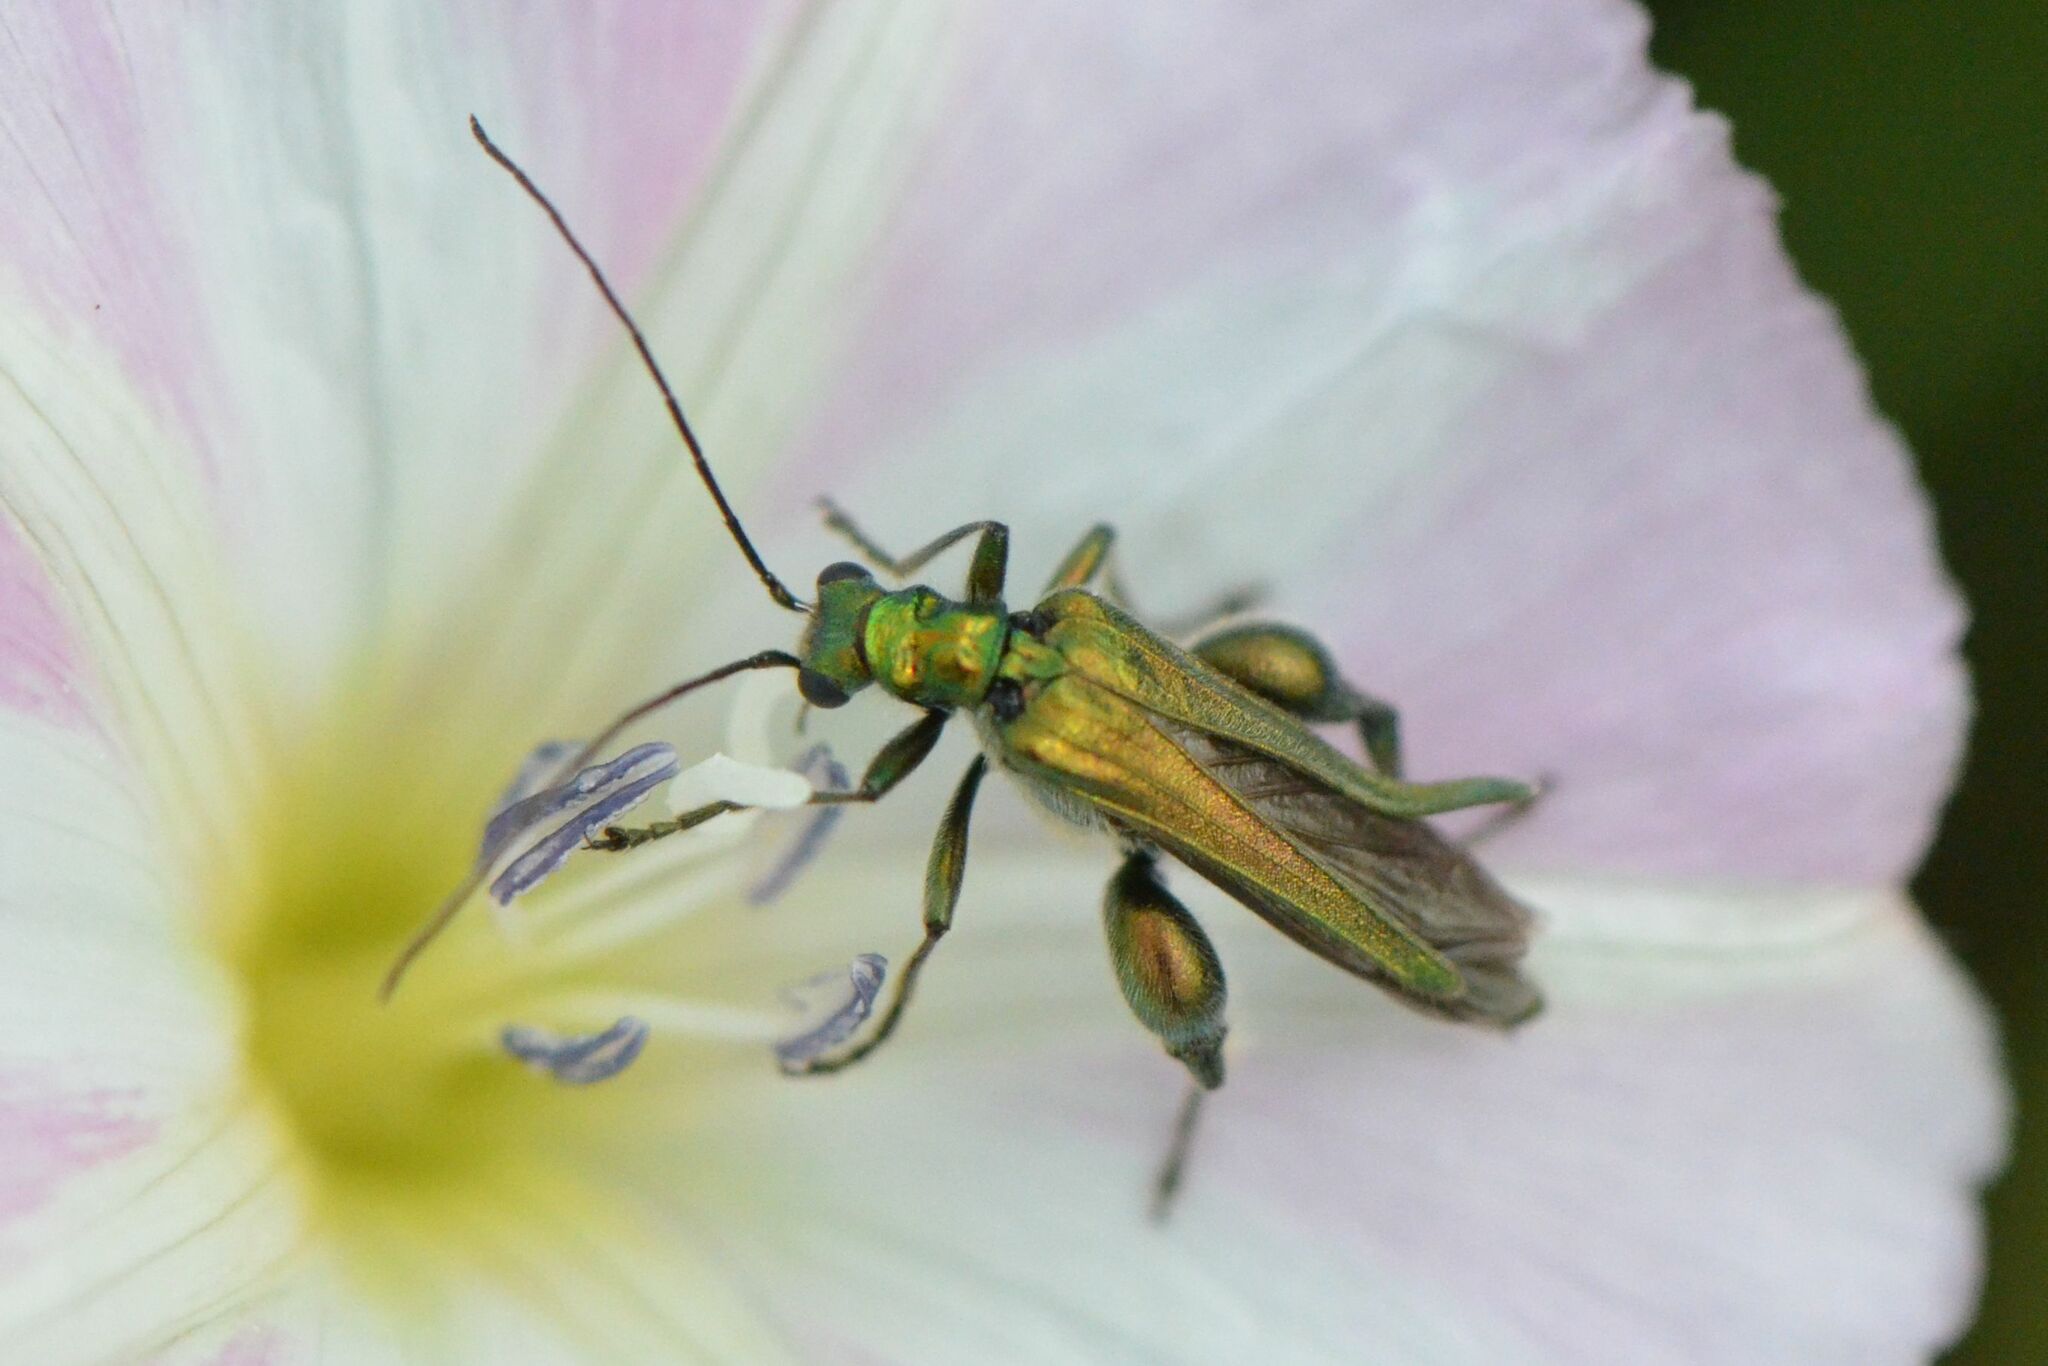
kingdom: Animalia
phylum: Arthropoda
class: Insecta
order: Coleoptera
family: Oedemeridae
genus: Oedemera
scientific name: Oedemera nobilis
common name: Swollen-thighed beetle
